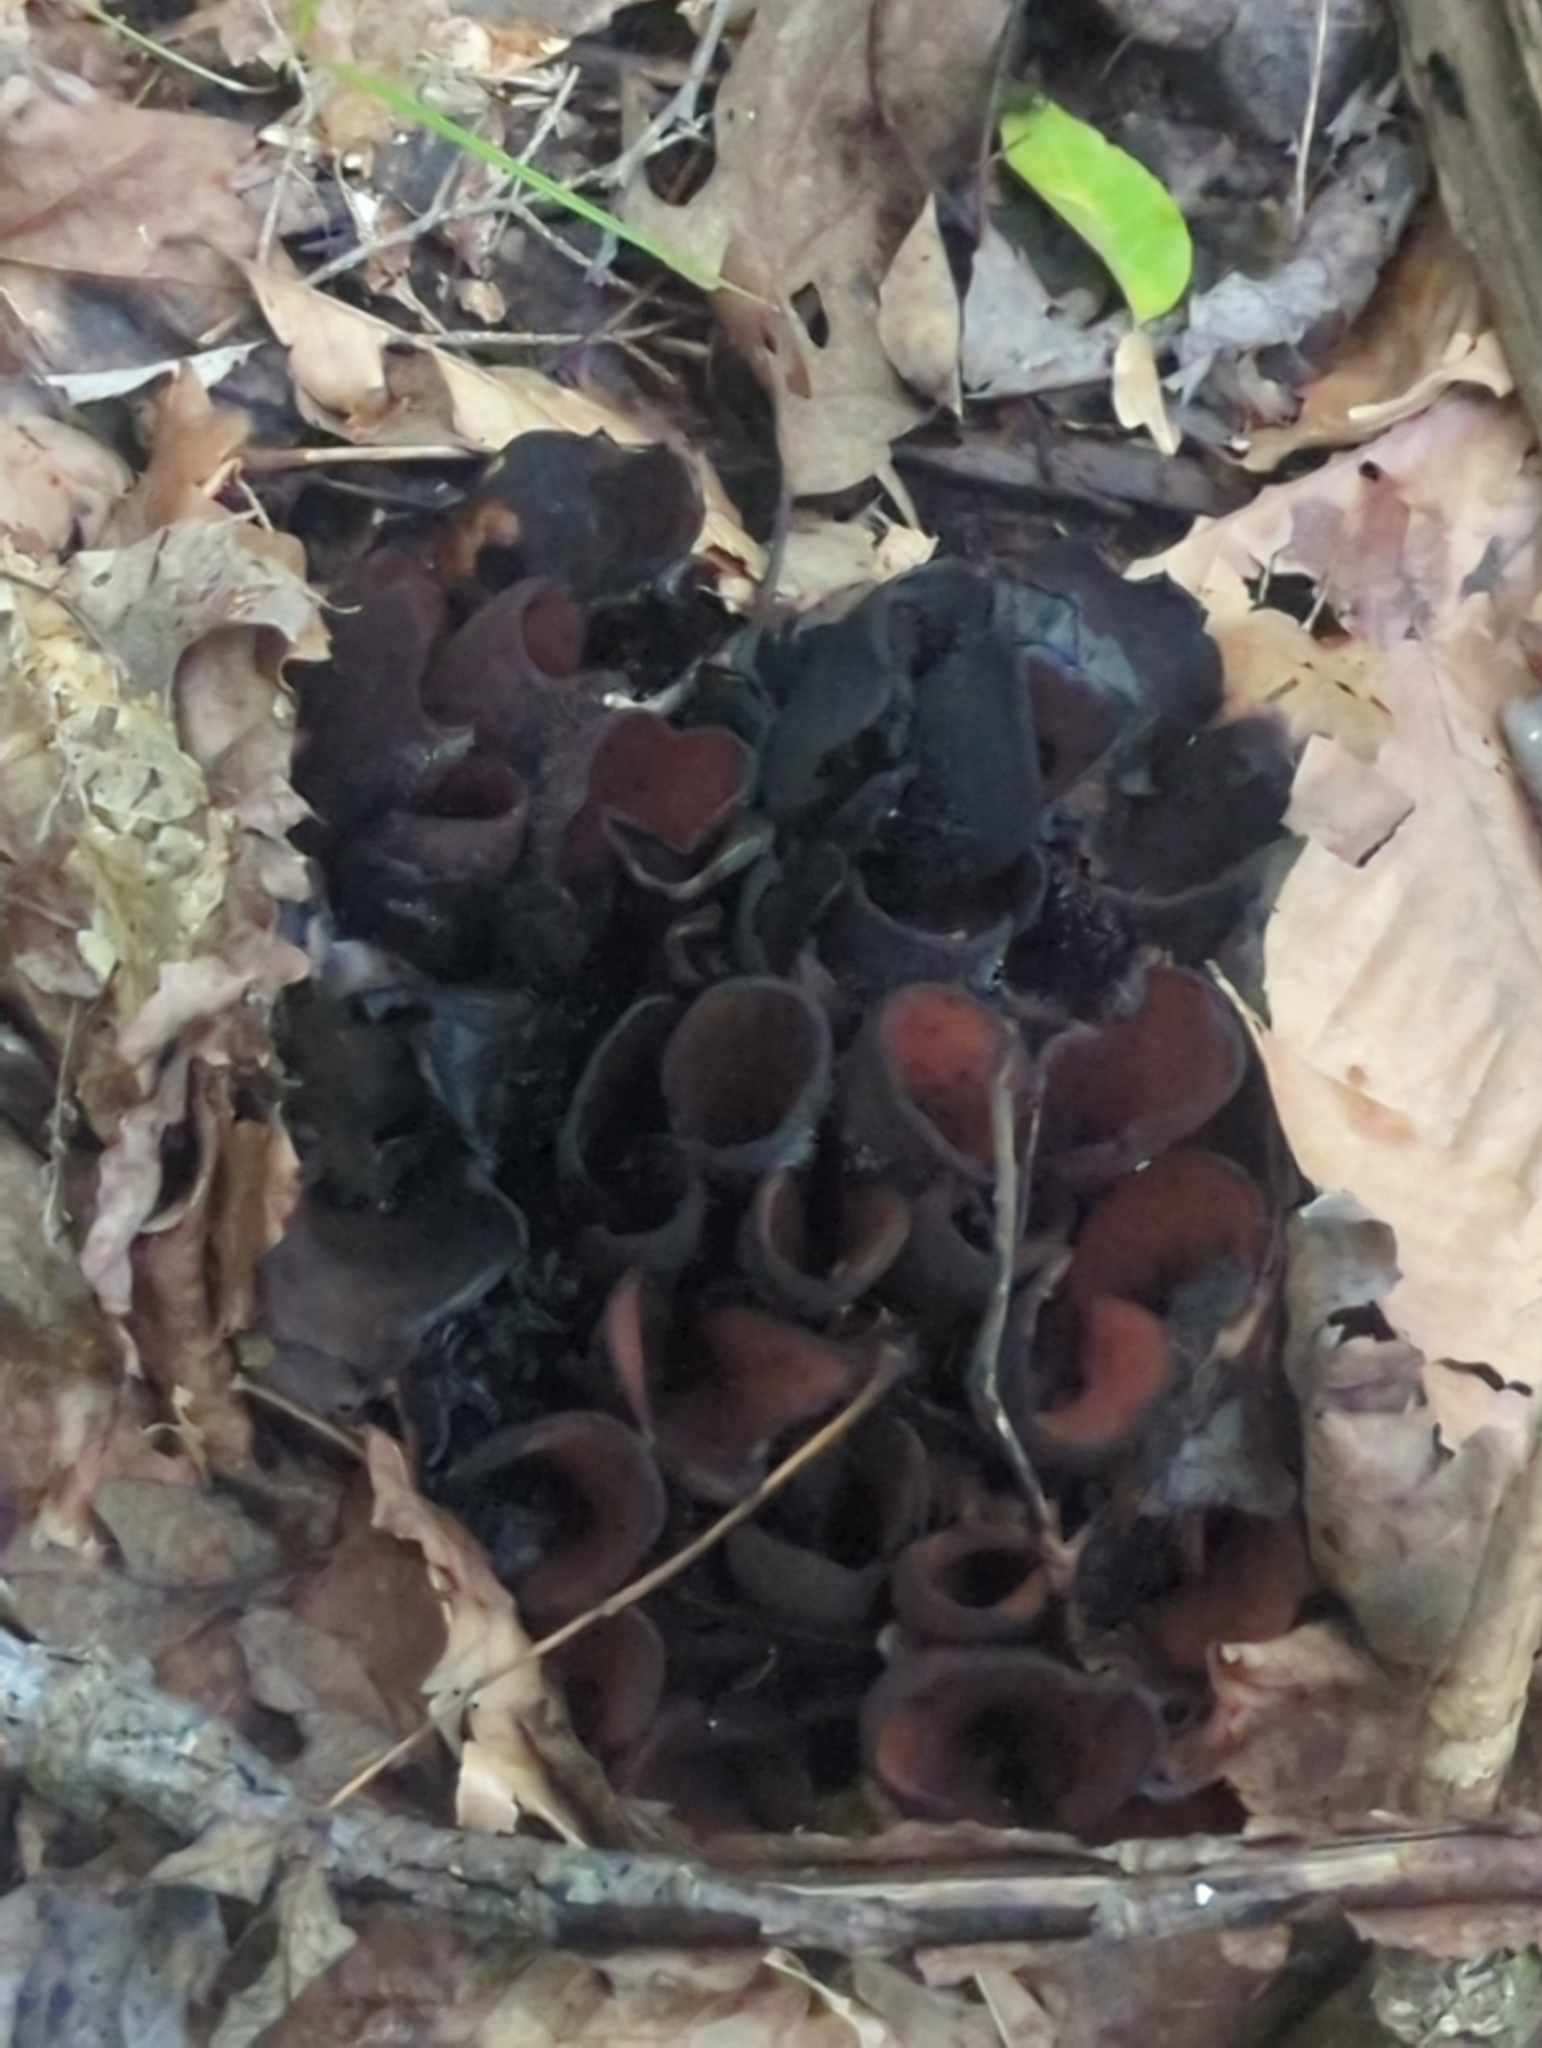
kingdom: Fungi
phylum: Ascomycota
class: Pezizomycetes
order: Pezizales
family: Wynneaceae
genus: Wynnea
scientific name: Wynnea americana
